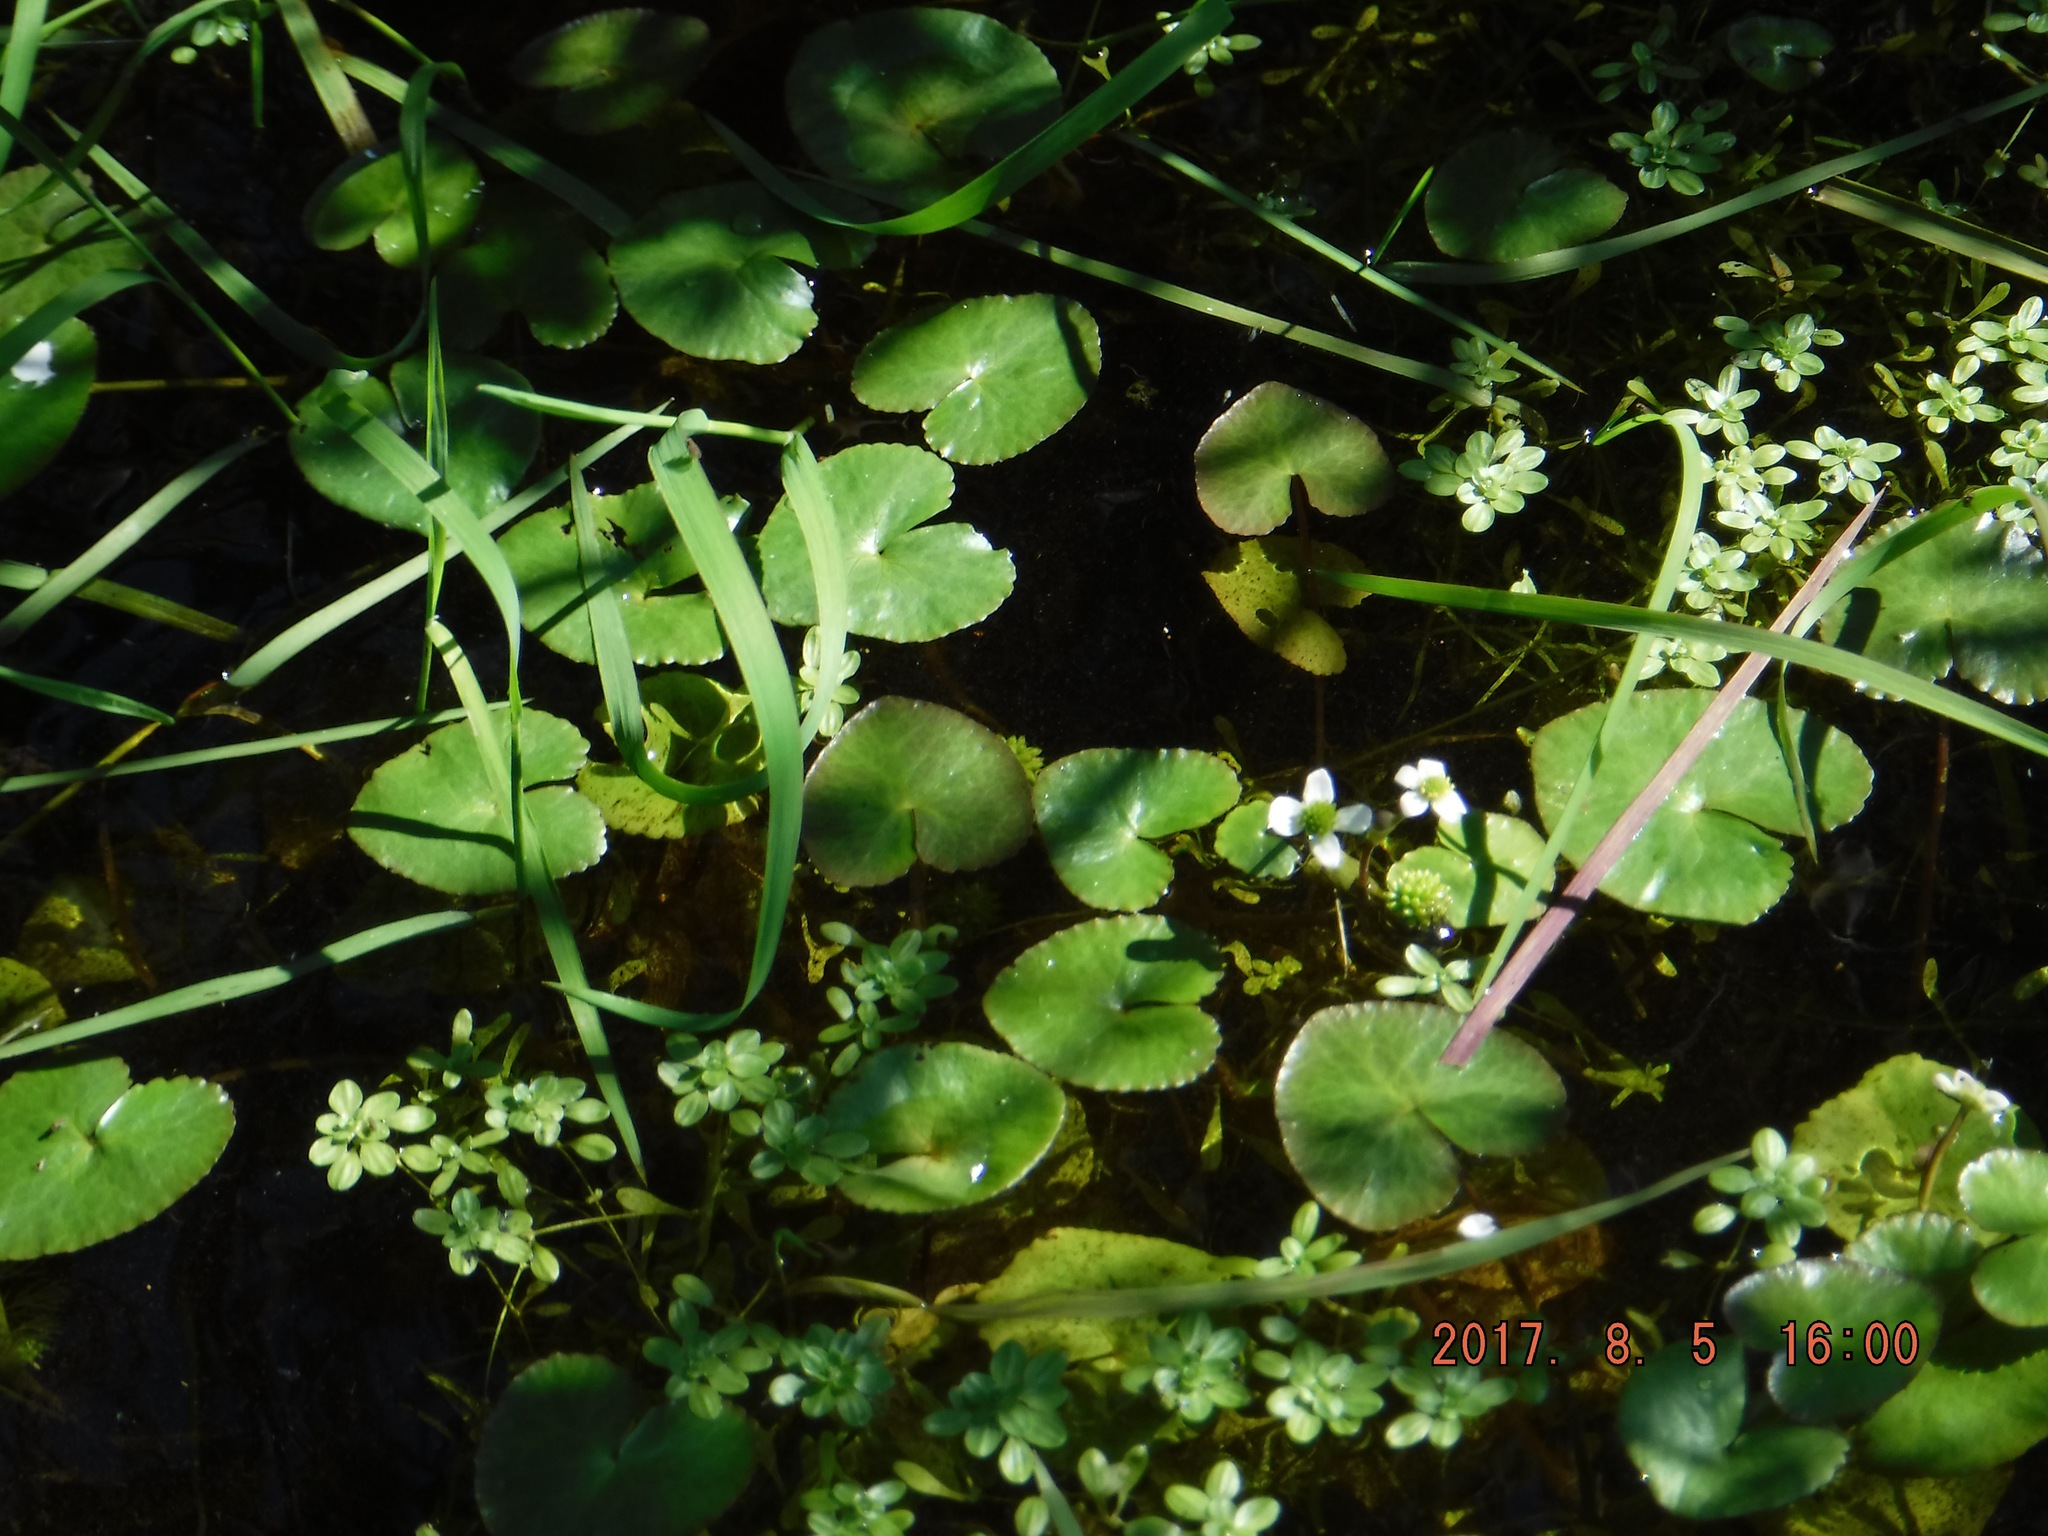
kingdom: Plantae
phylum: Tracheophyta
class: Magnoliopsida
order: Ranunculales
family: Ranunculaceae
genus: Caltha
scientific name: Caltha natans
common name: Floating marsh marigold
